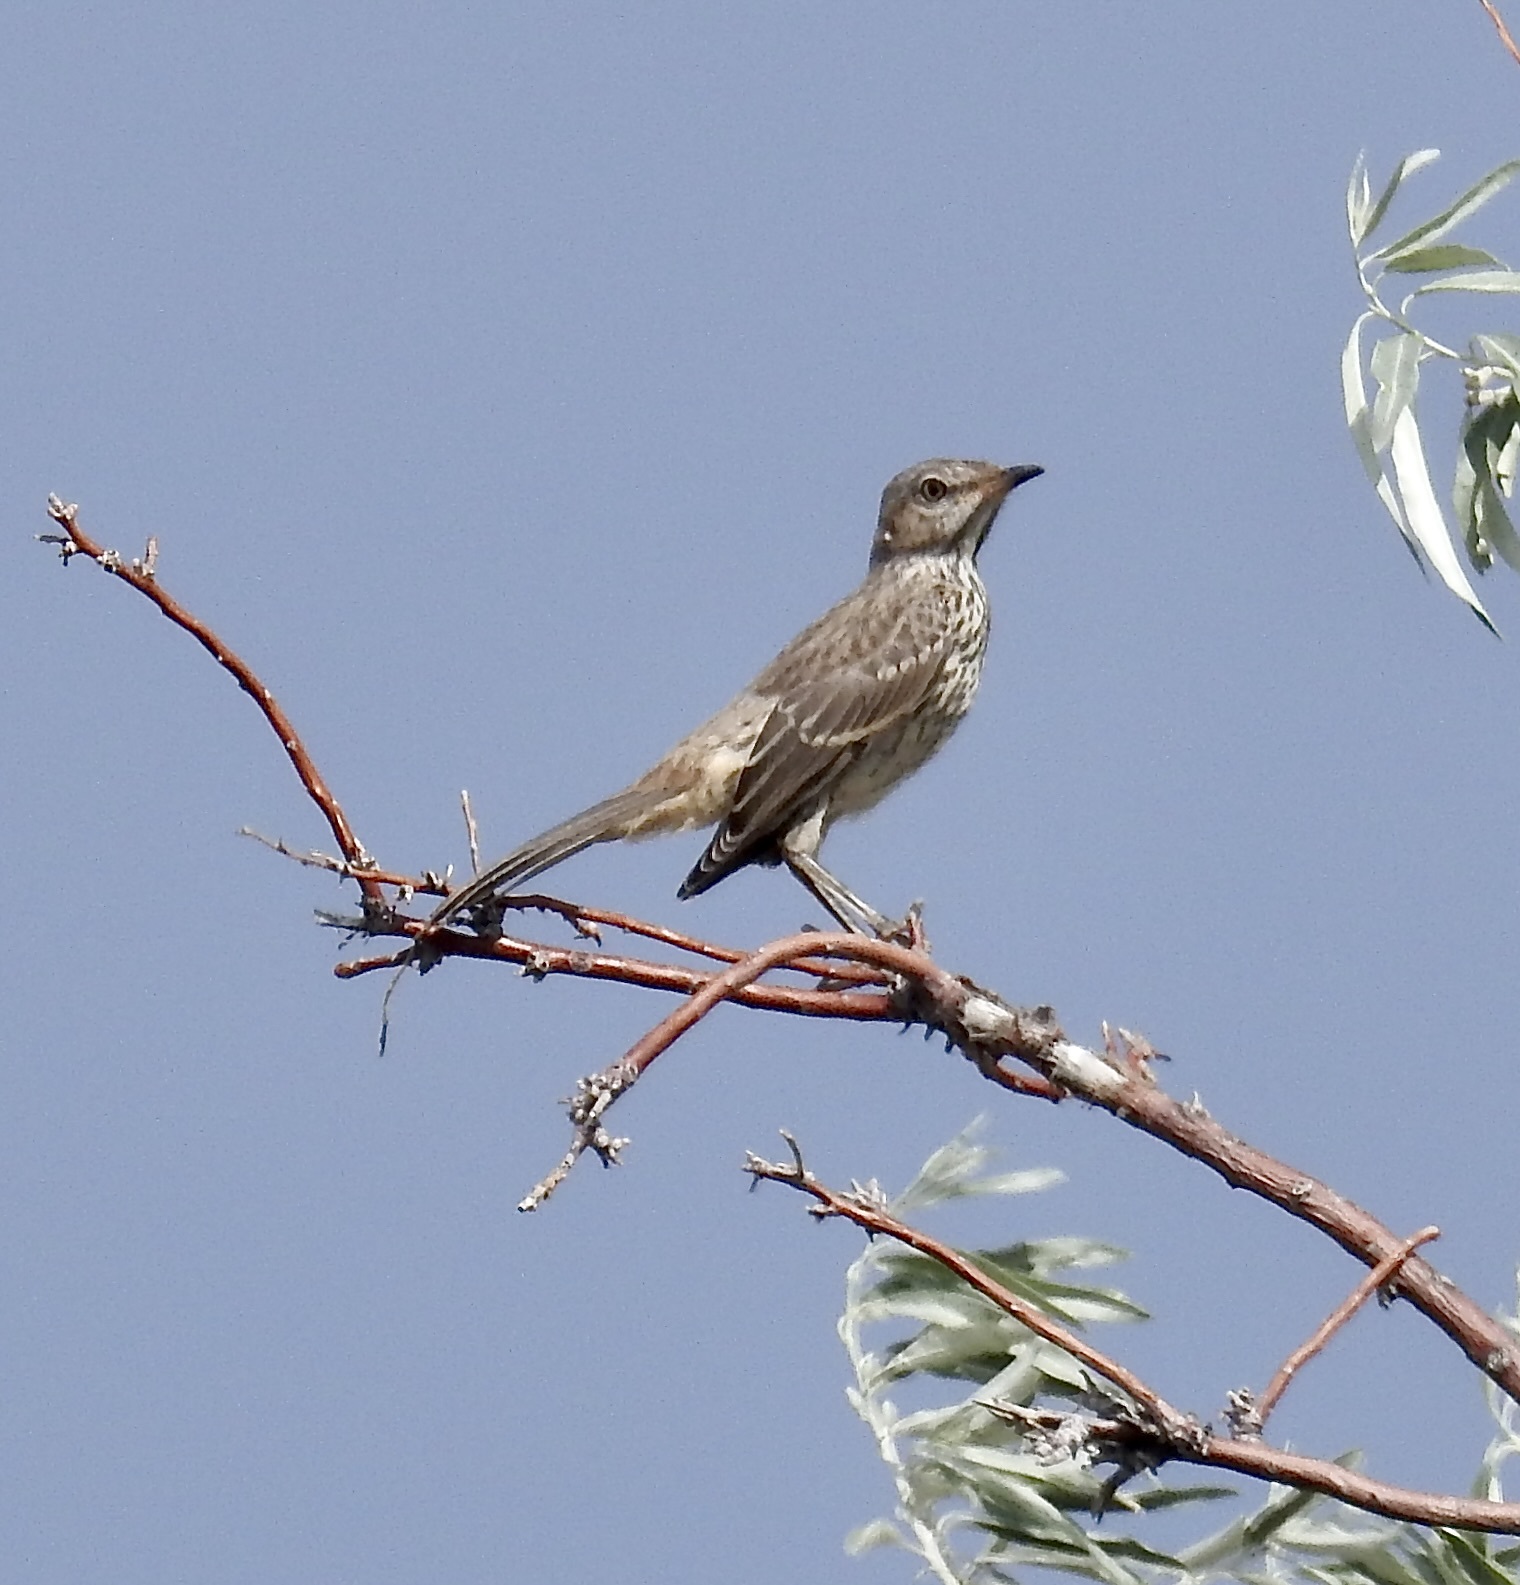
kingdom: Animalia
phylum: Chordata
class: Aves
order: Passeriformes
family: Mimidae
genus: Oreoscoptes
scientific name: Oreoscoptes montanus
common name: Sage thrasher
